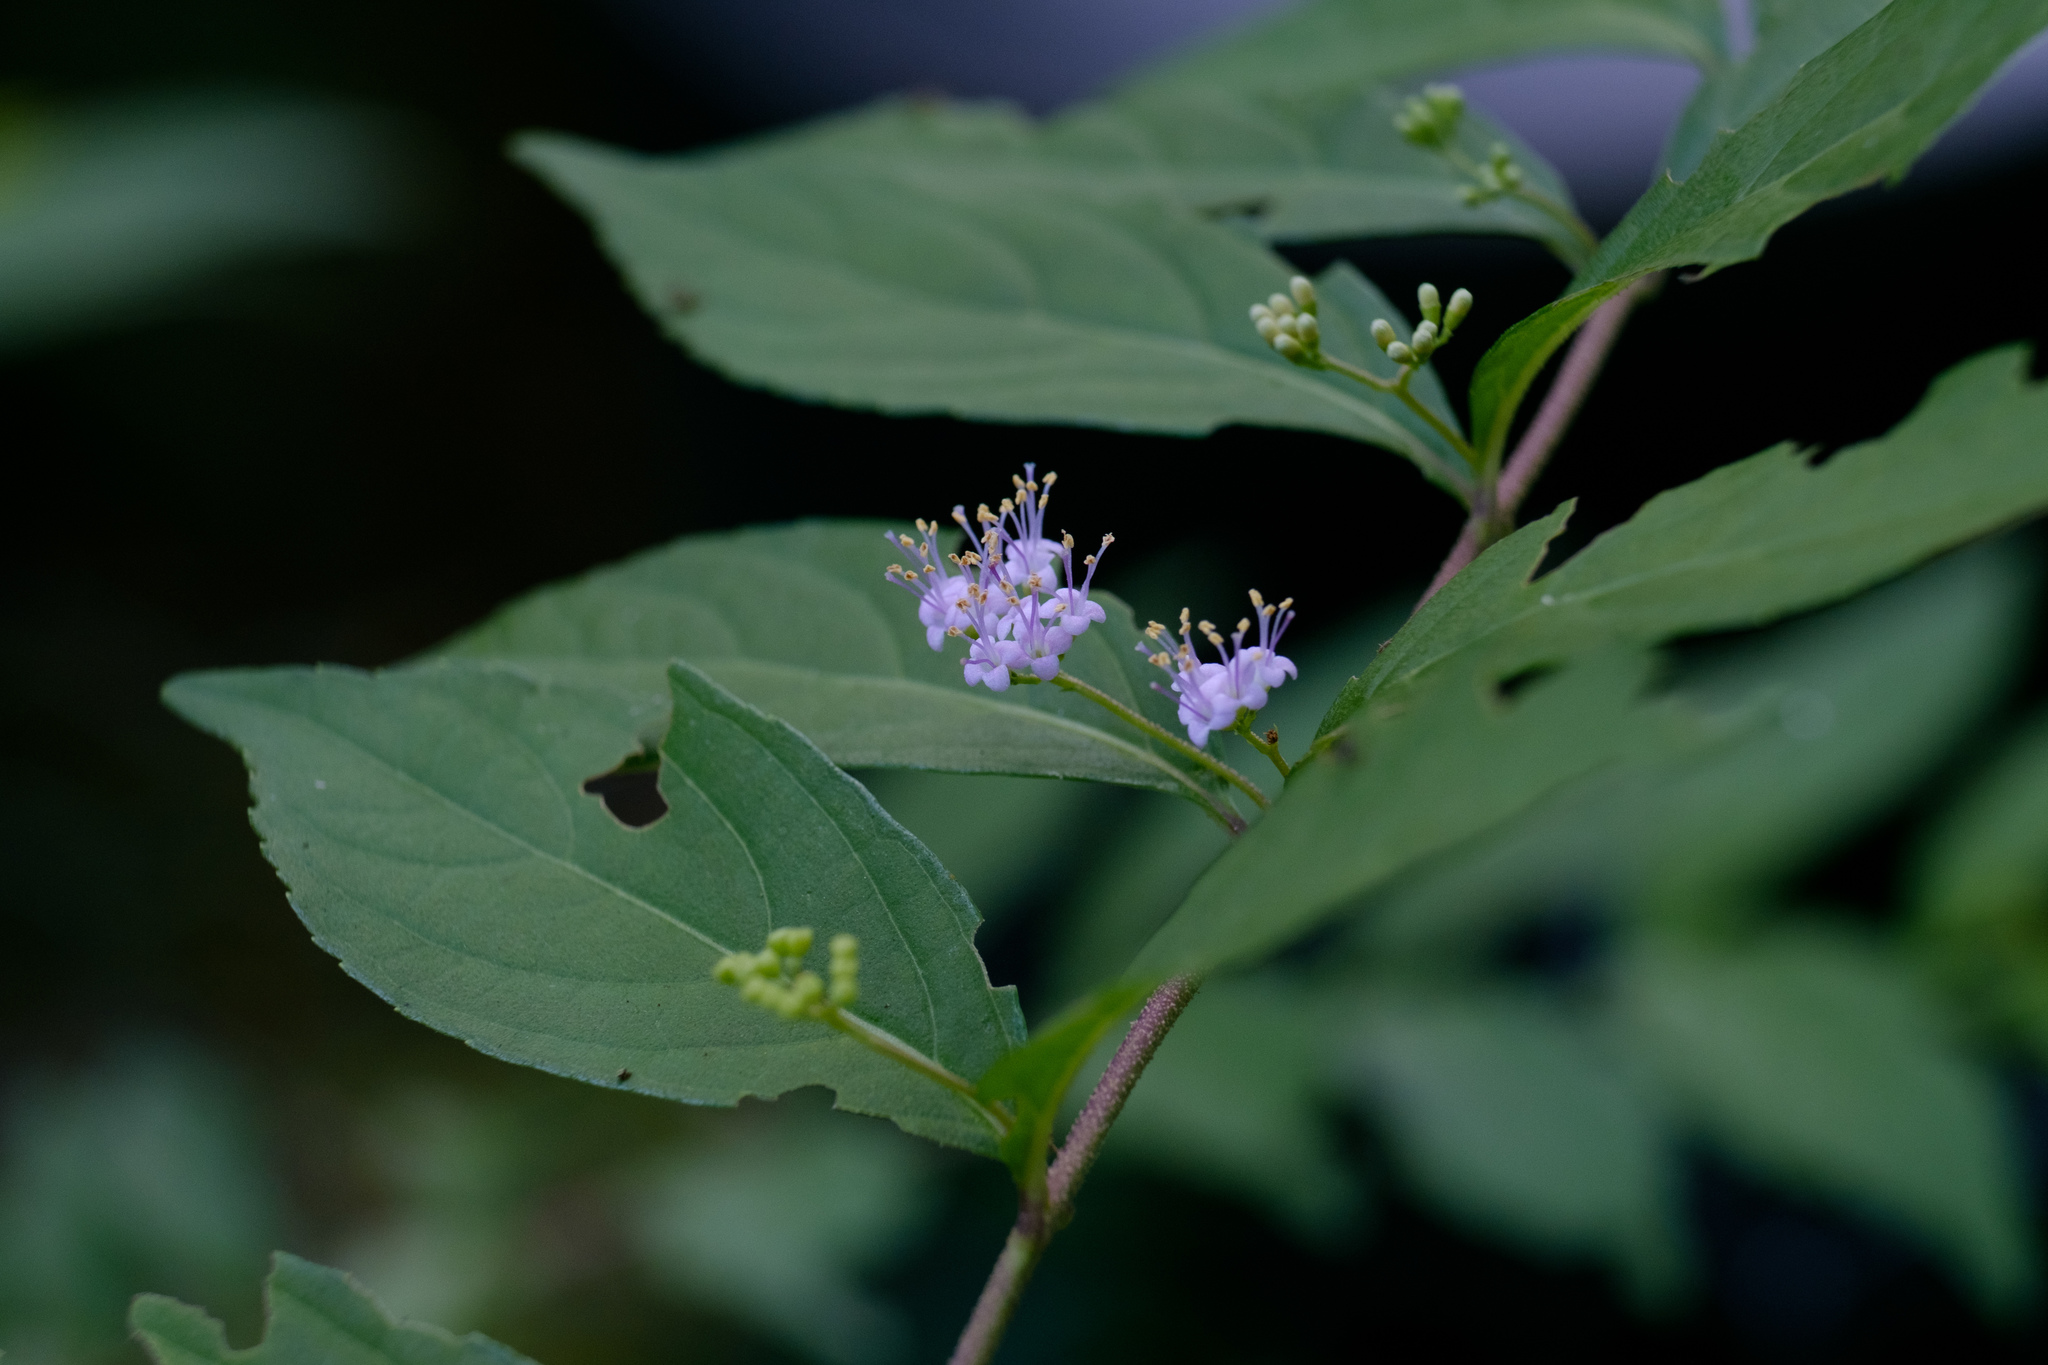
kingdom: Plantae
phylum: Tracheophyta
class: Magnoliopsida
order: Lamiales
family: Lamiaceae
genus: Callicarpa
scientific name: Callicarpa dichotoma
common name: Purple beauty-berry
